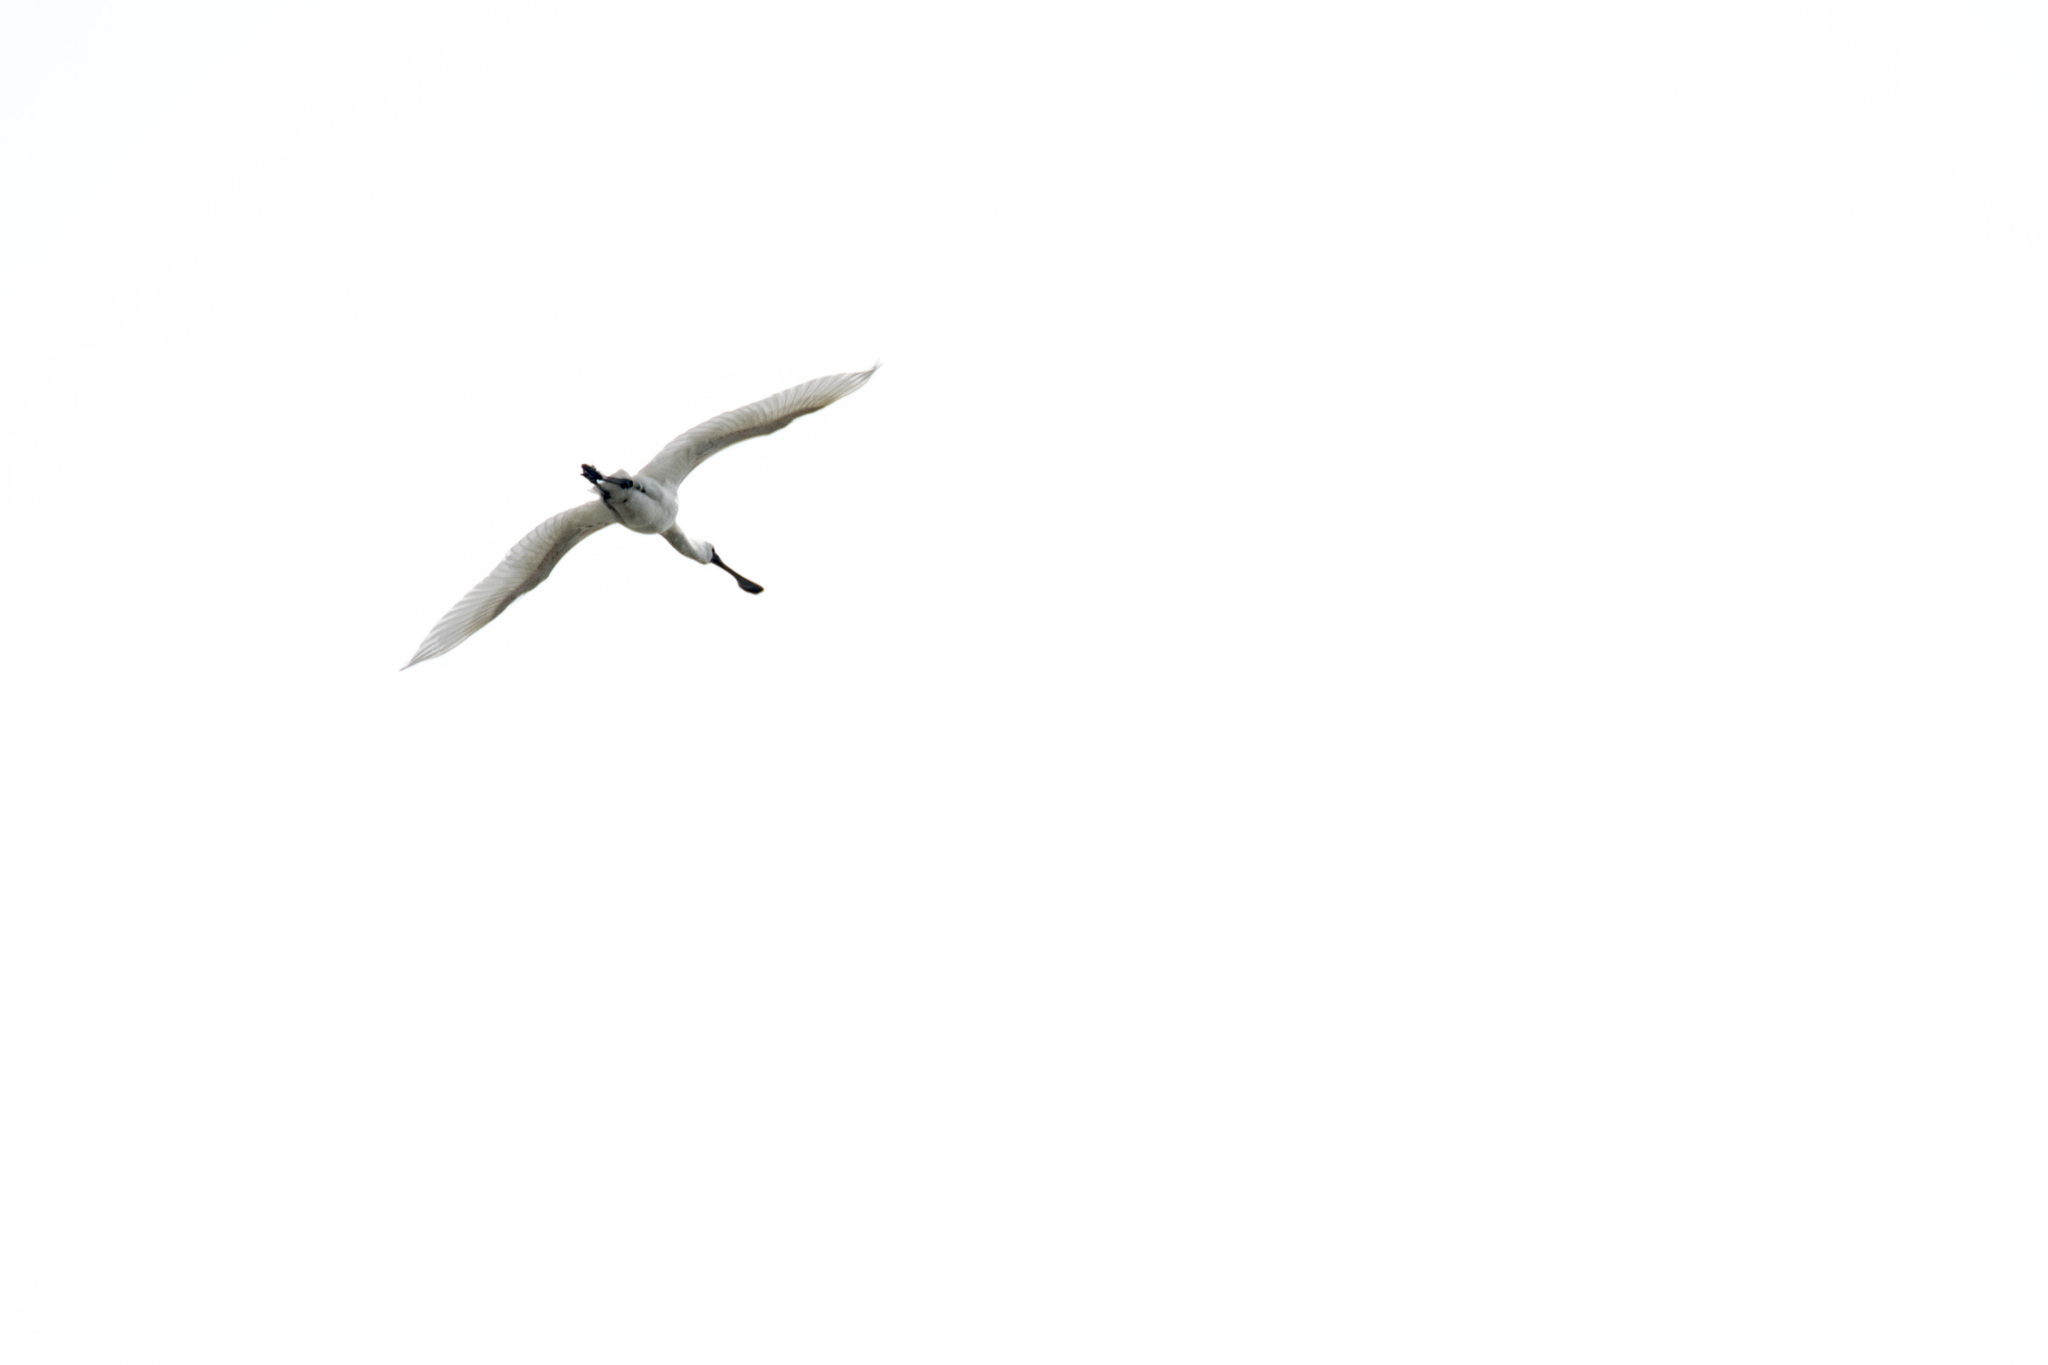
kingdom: Animalia
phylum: Chordata
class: Aves
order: Pelecaniformes
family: Threskiornithidae
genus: Platalea
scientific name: Platalea minor
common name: Black-faced spoonbill
